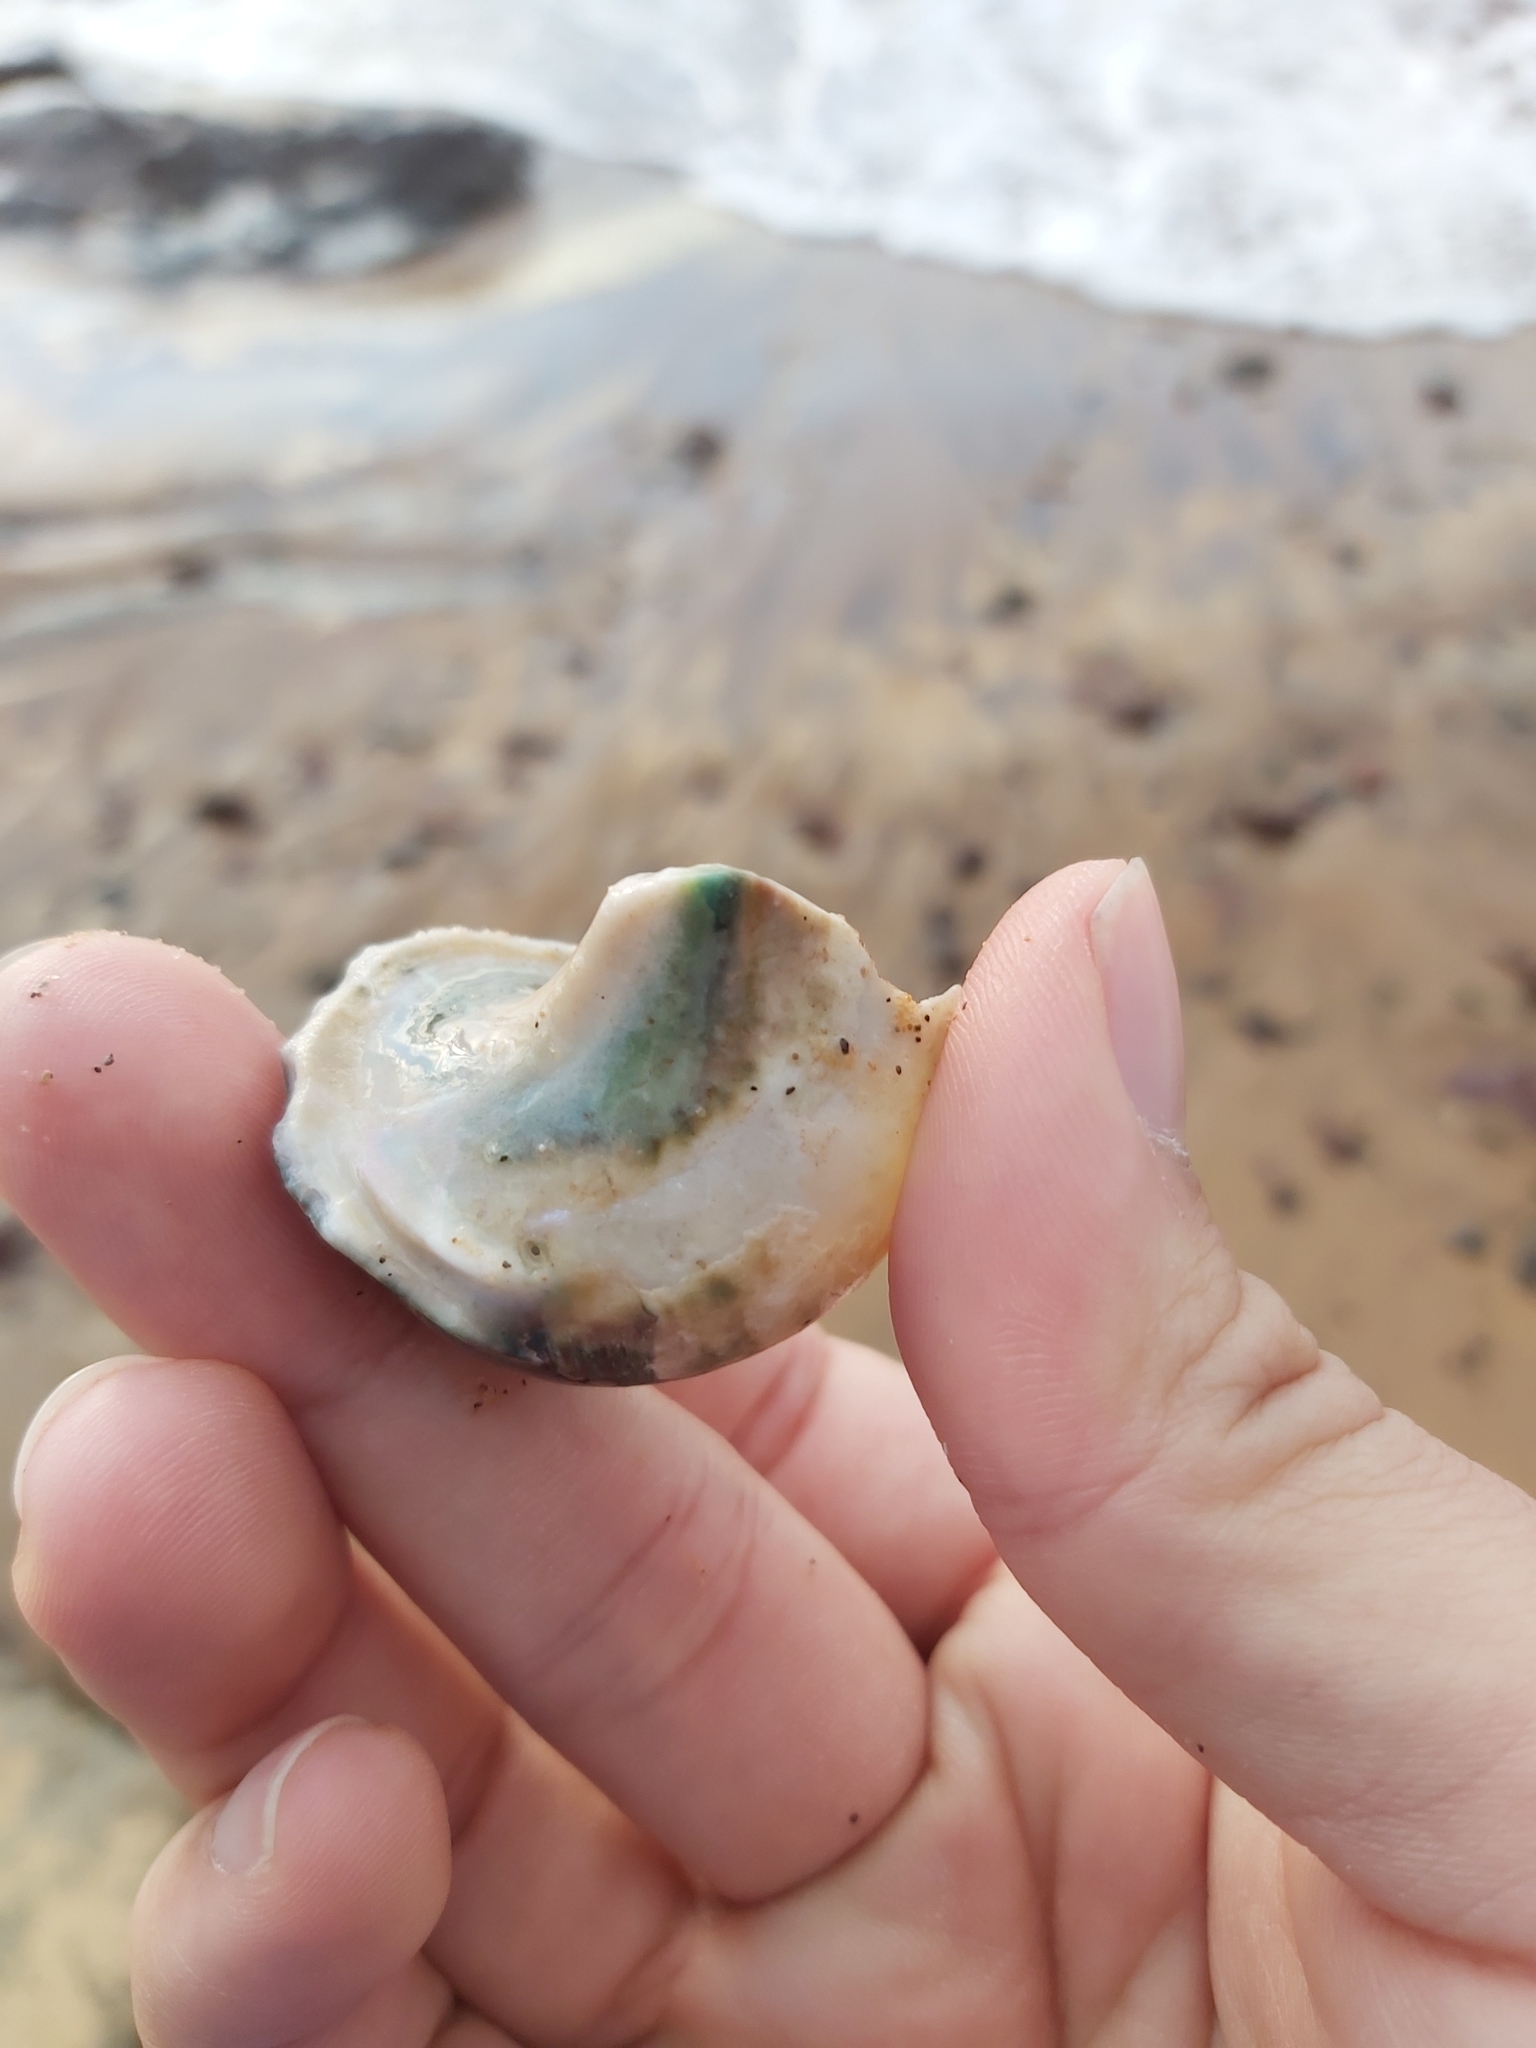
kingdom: Animalia
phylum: Mollusca
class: Gastropoda
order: Trochida
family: Turbinidae
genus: Turbo
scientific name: Turbo militaris
